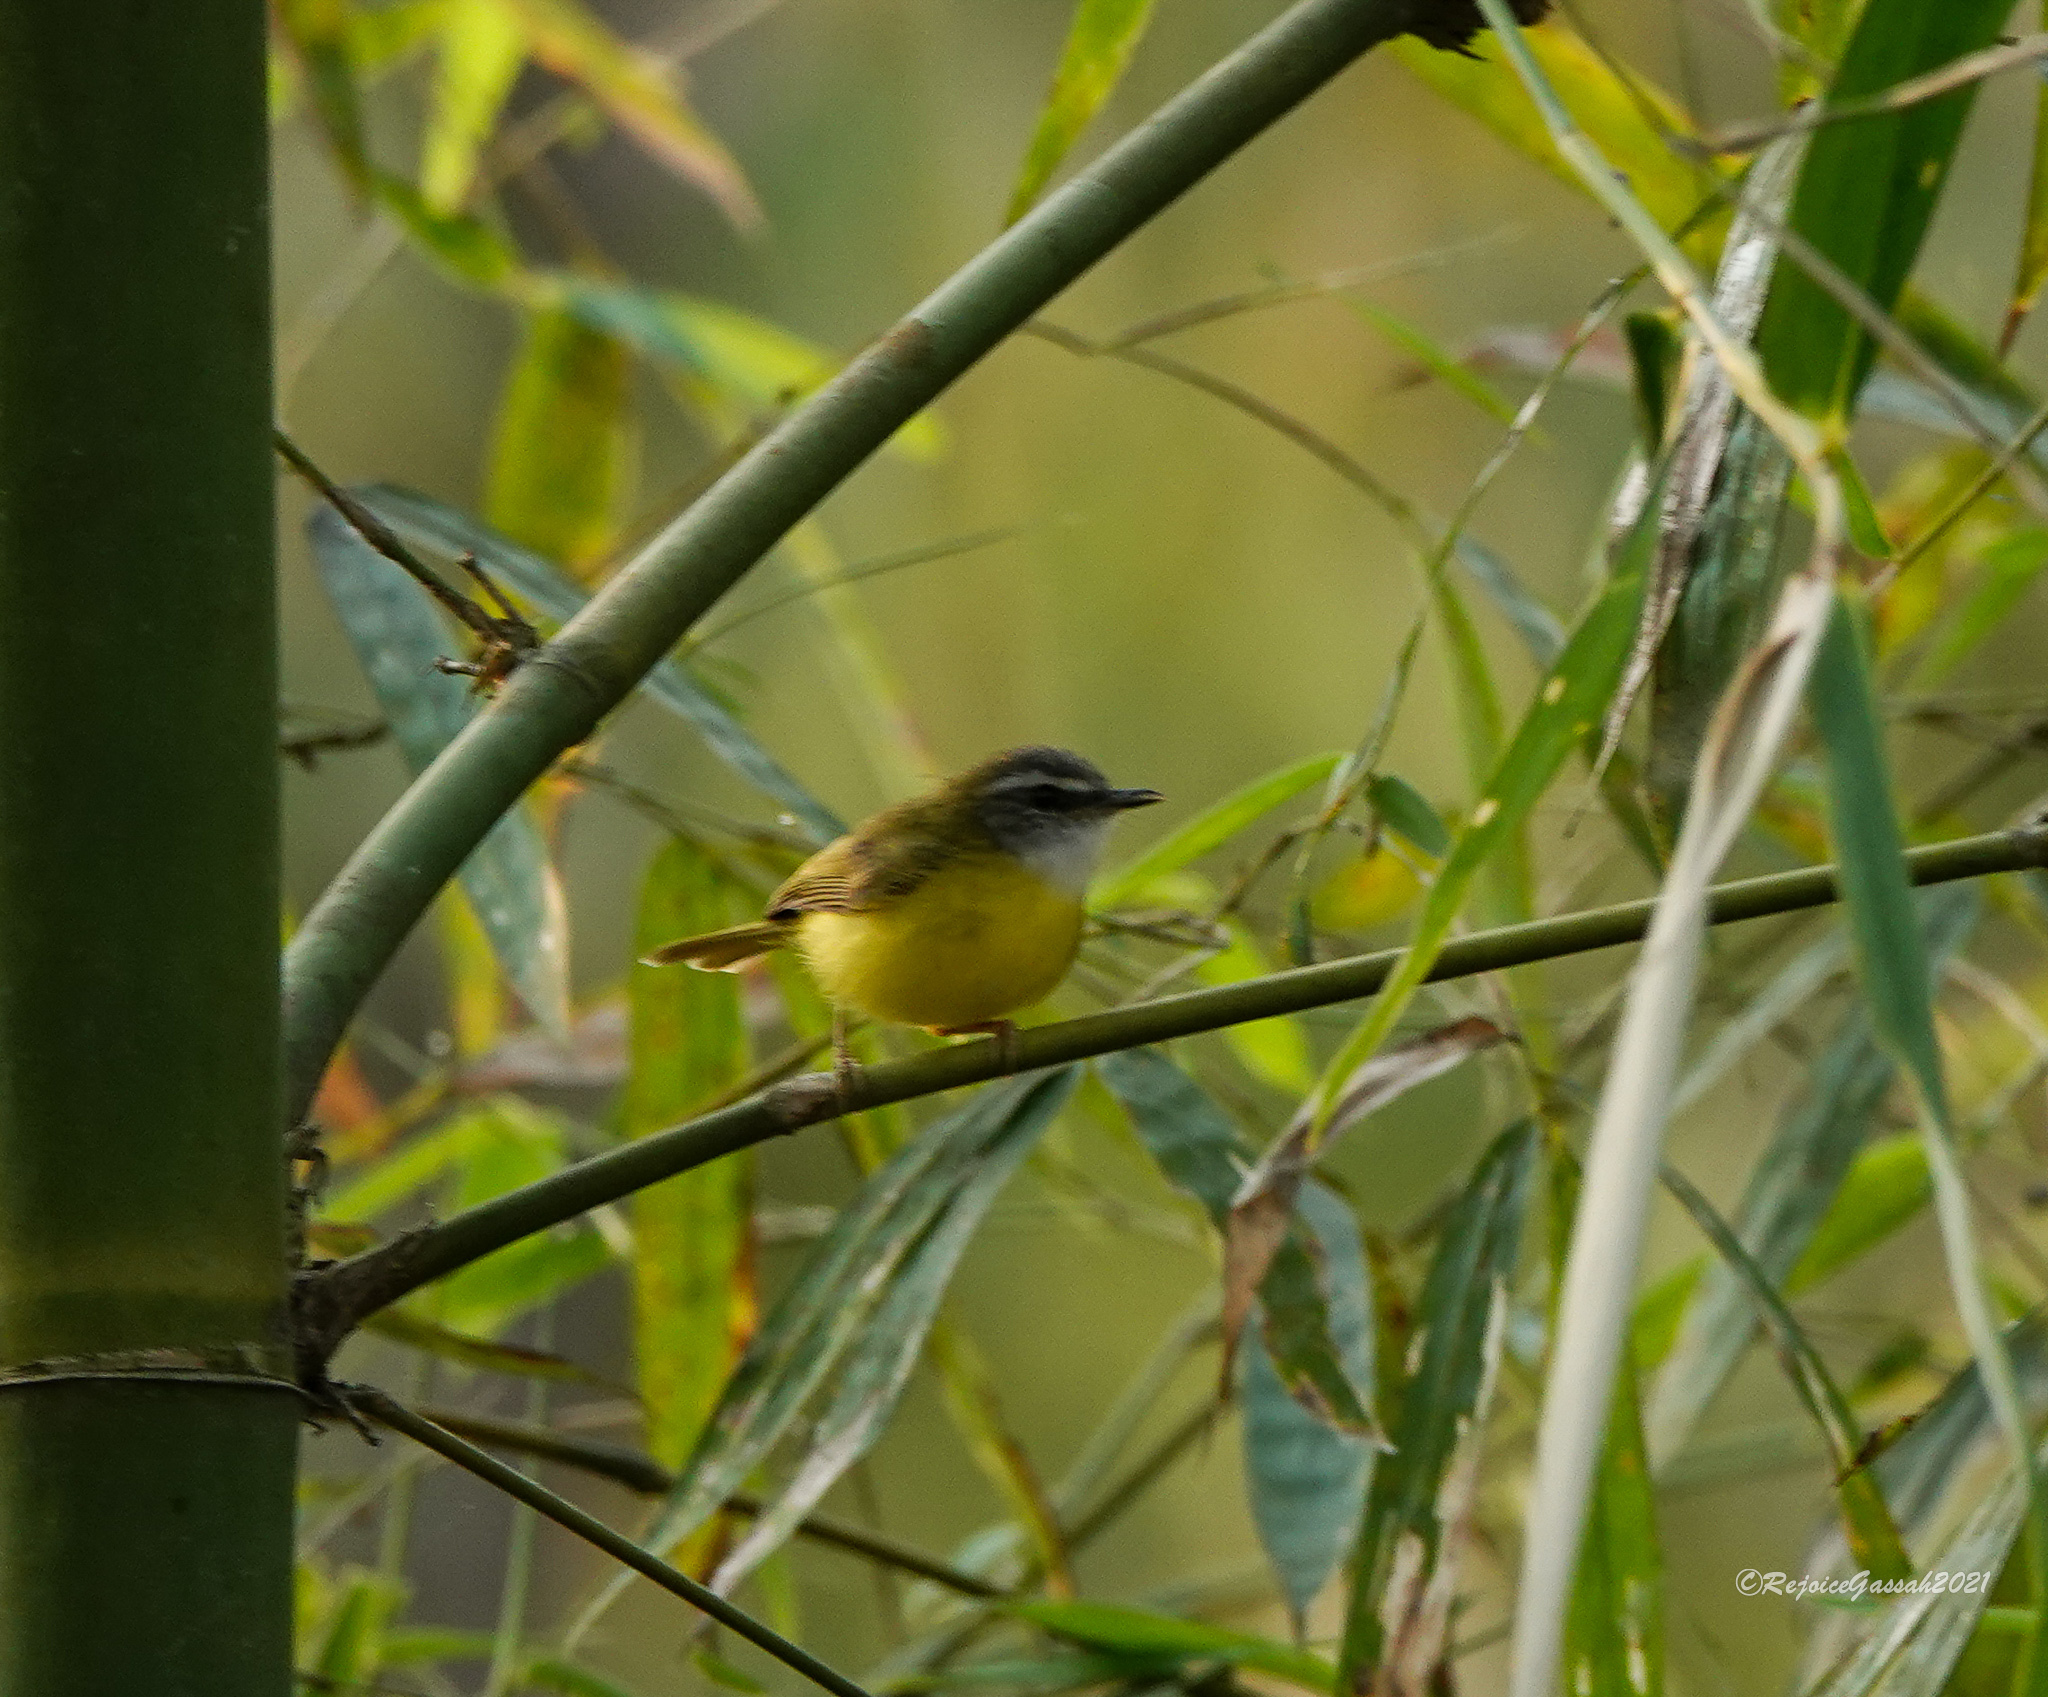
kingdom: Animalia
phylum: Chordata
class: Aves
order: Passeriformes
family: Cettiidae
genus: Abroscopus
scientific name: Abroscopus superciliaris
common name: Yellow-bellied warbler
